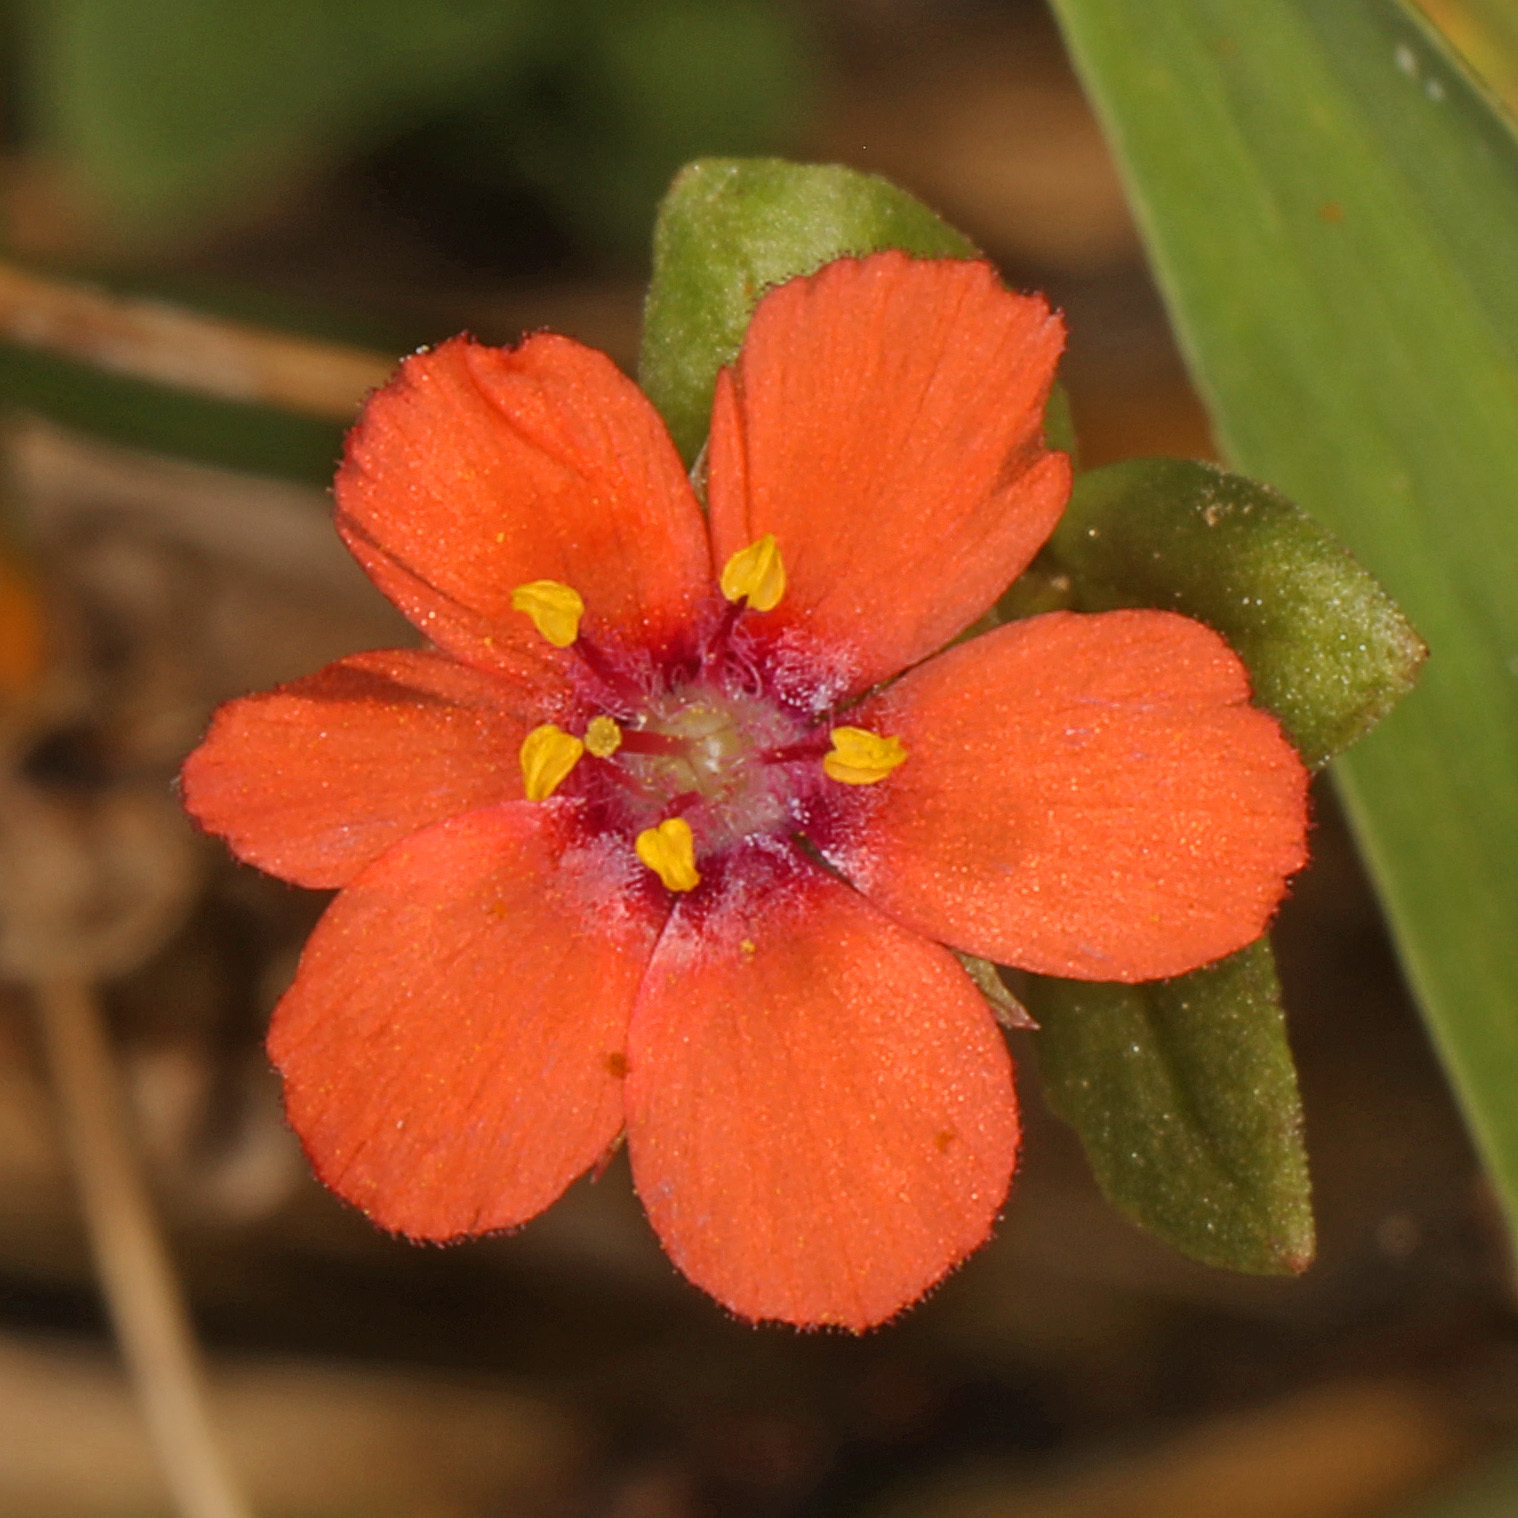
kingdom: Plantae
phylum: Tracheophyta
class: Magnoliopsida
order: Ericales
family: Primulaceae
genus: Lysimachia
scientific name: Lysimachia arvensis
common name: Scarlet pimpernel
